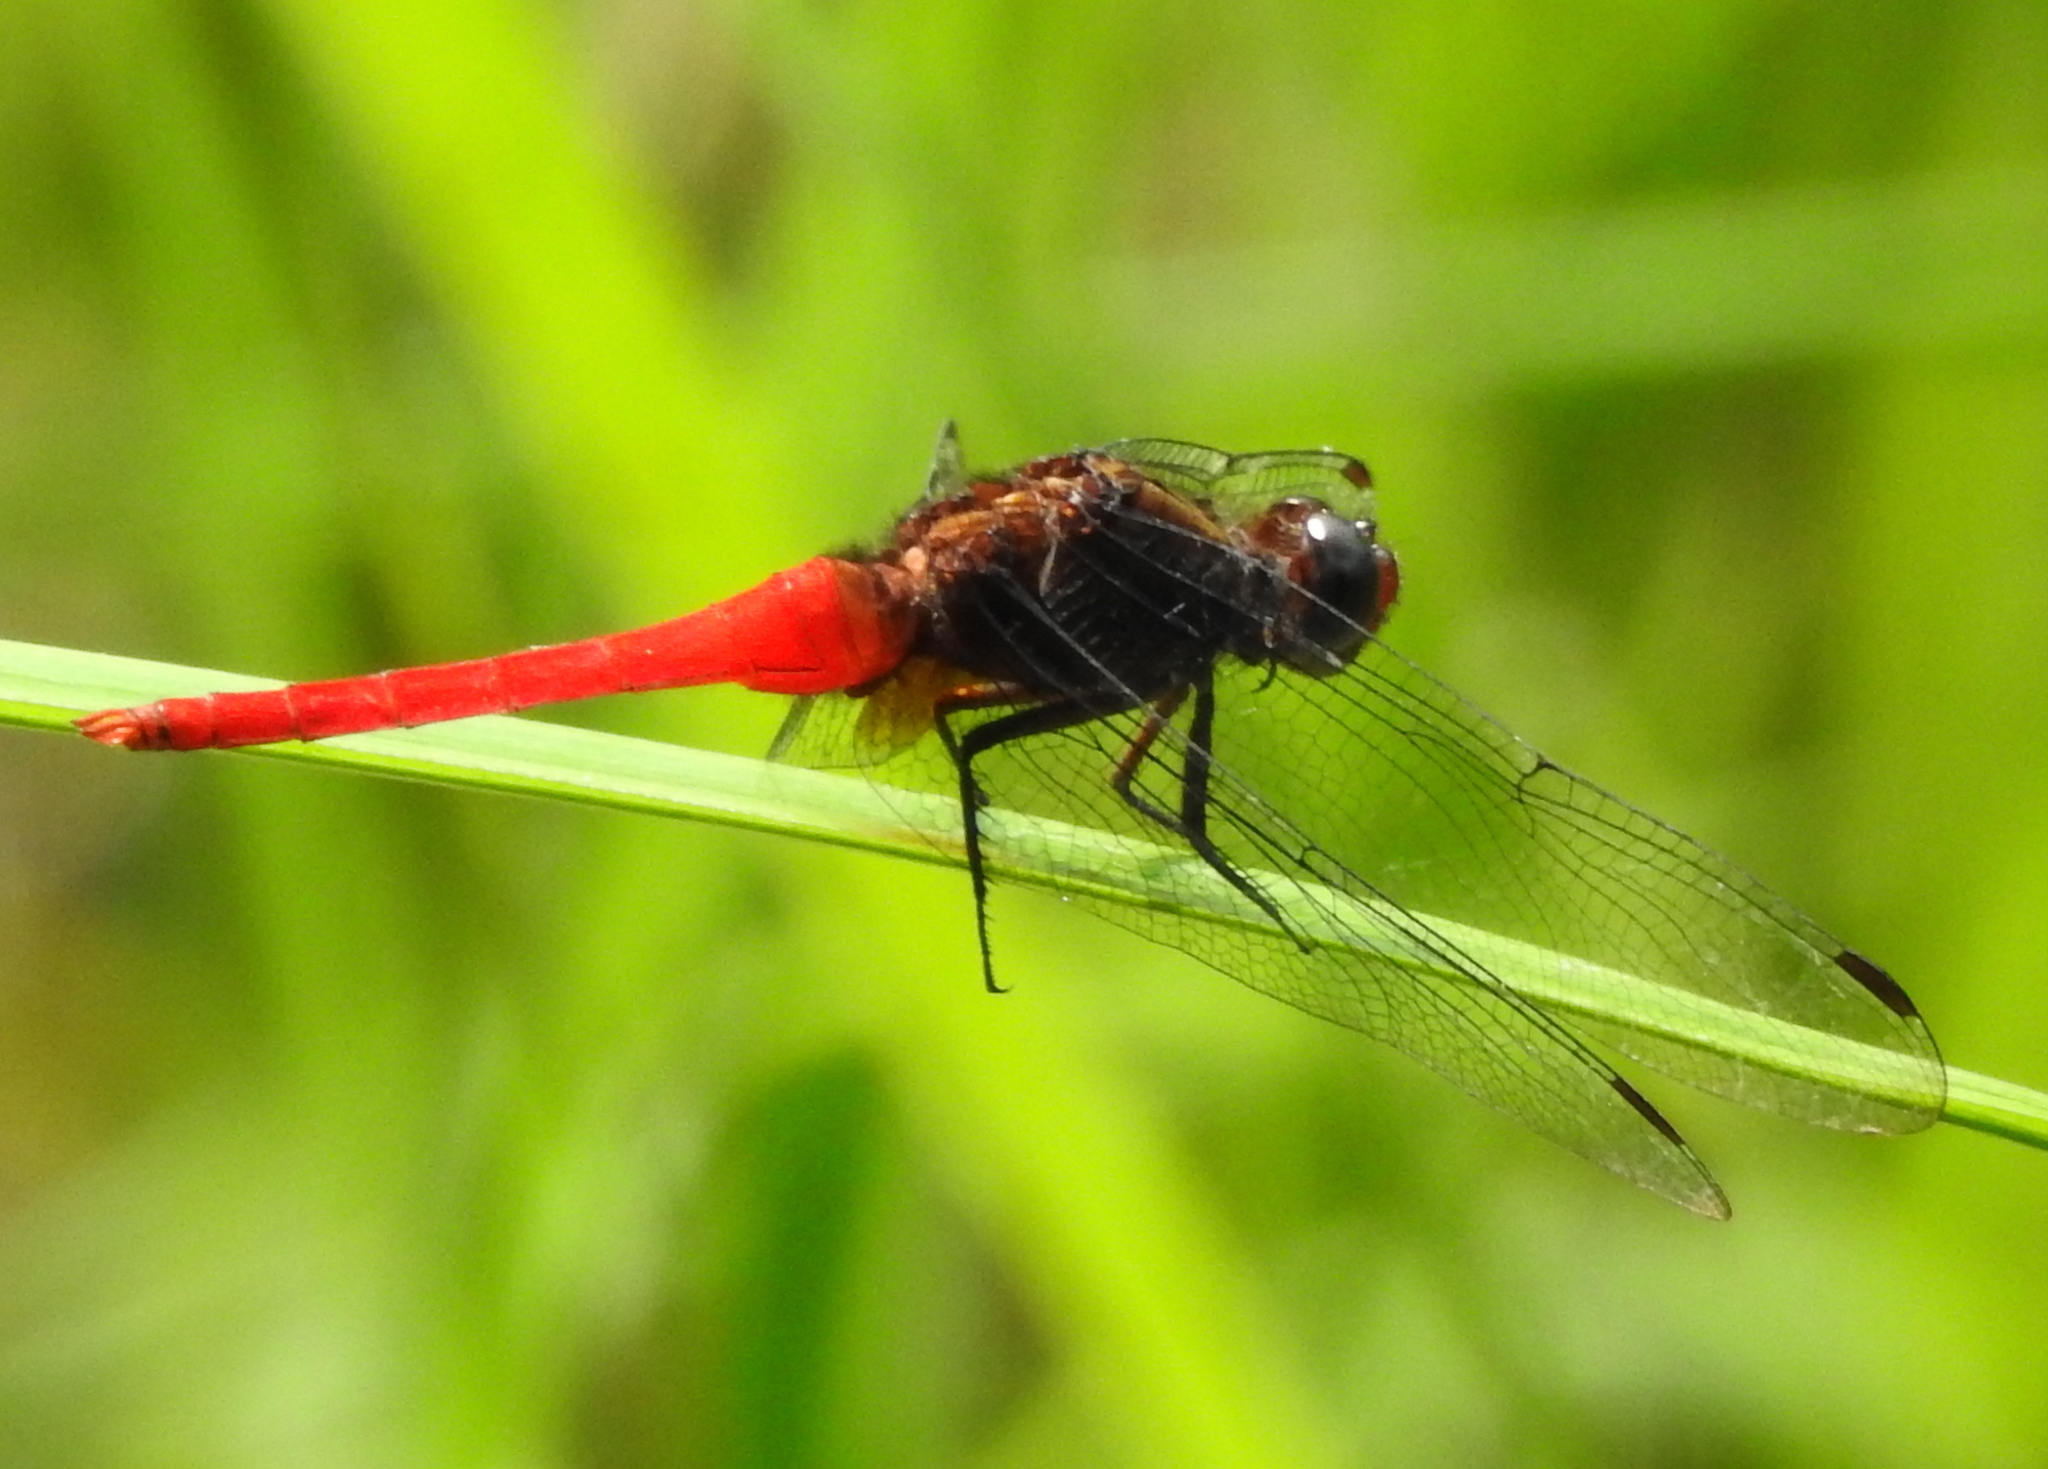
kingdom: Animalia
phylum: Arthropoda
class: Insecta
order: Odonata
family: Libellulidae
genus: Orthetrum
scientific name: Orthetrum chrysis
